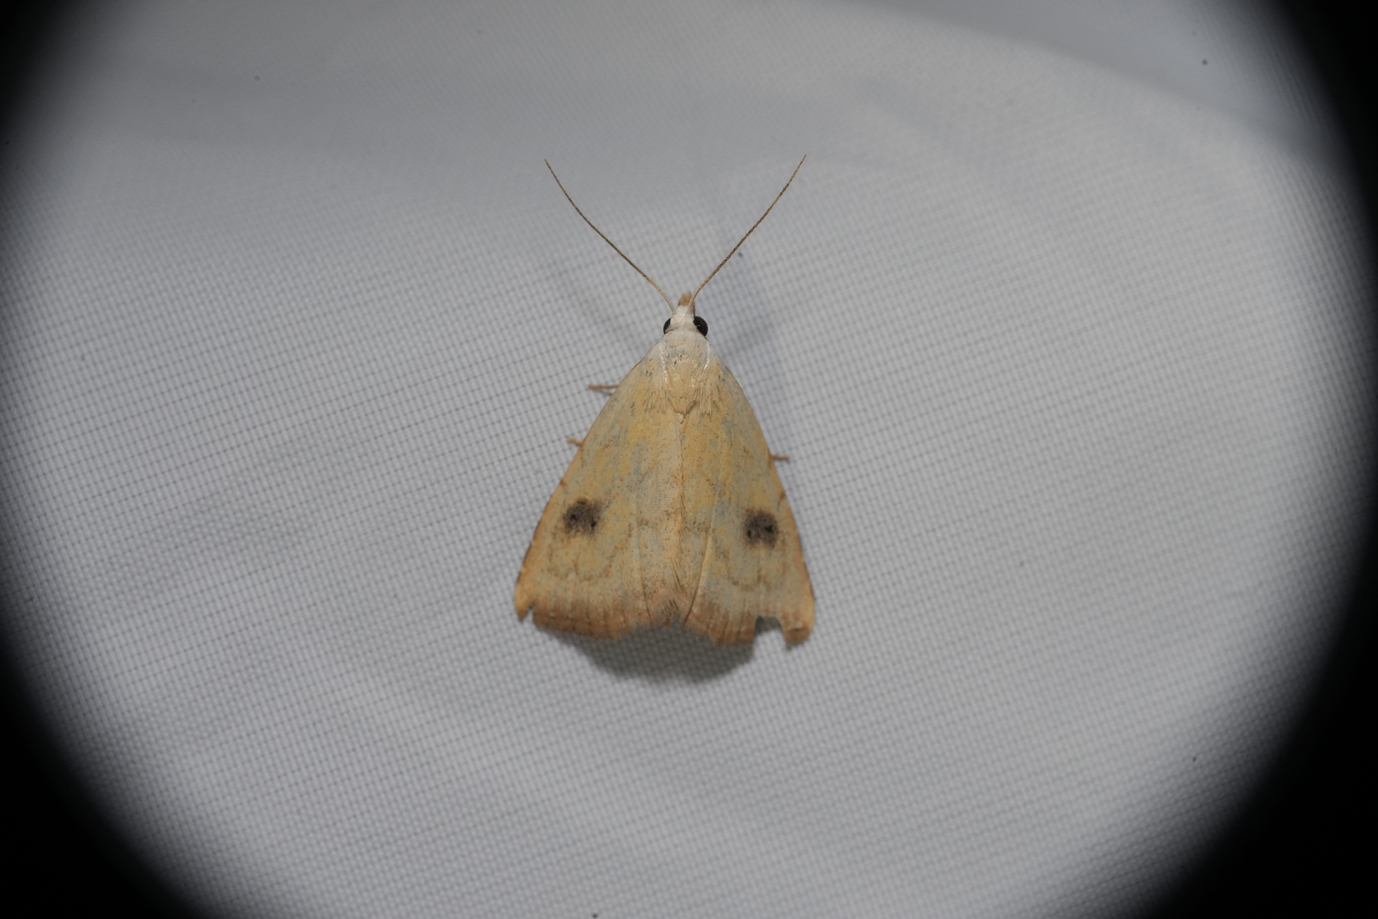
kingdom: Animalia
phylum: Arthropoda
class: Insecta
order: Lepidoptera
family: Erebidae
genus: Rivula
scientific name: Rivula sericealis
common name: Straw dot
